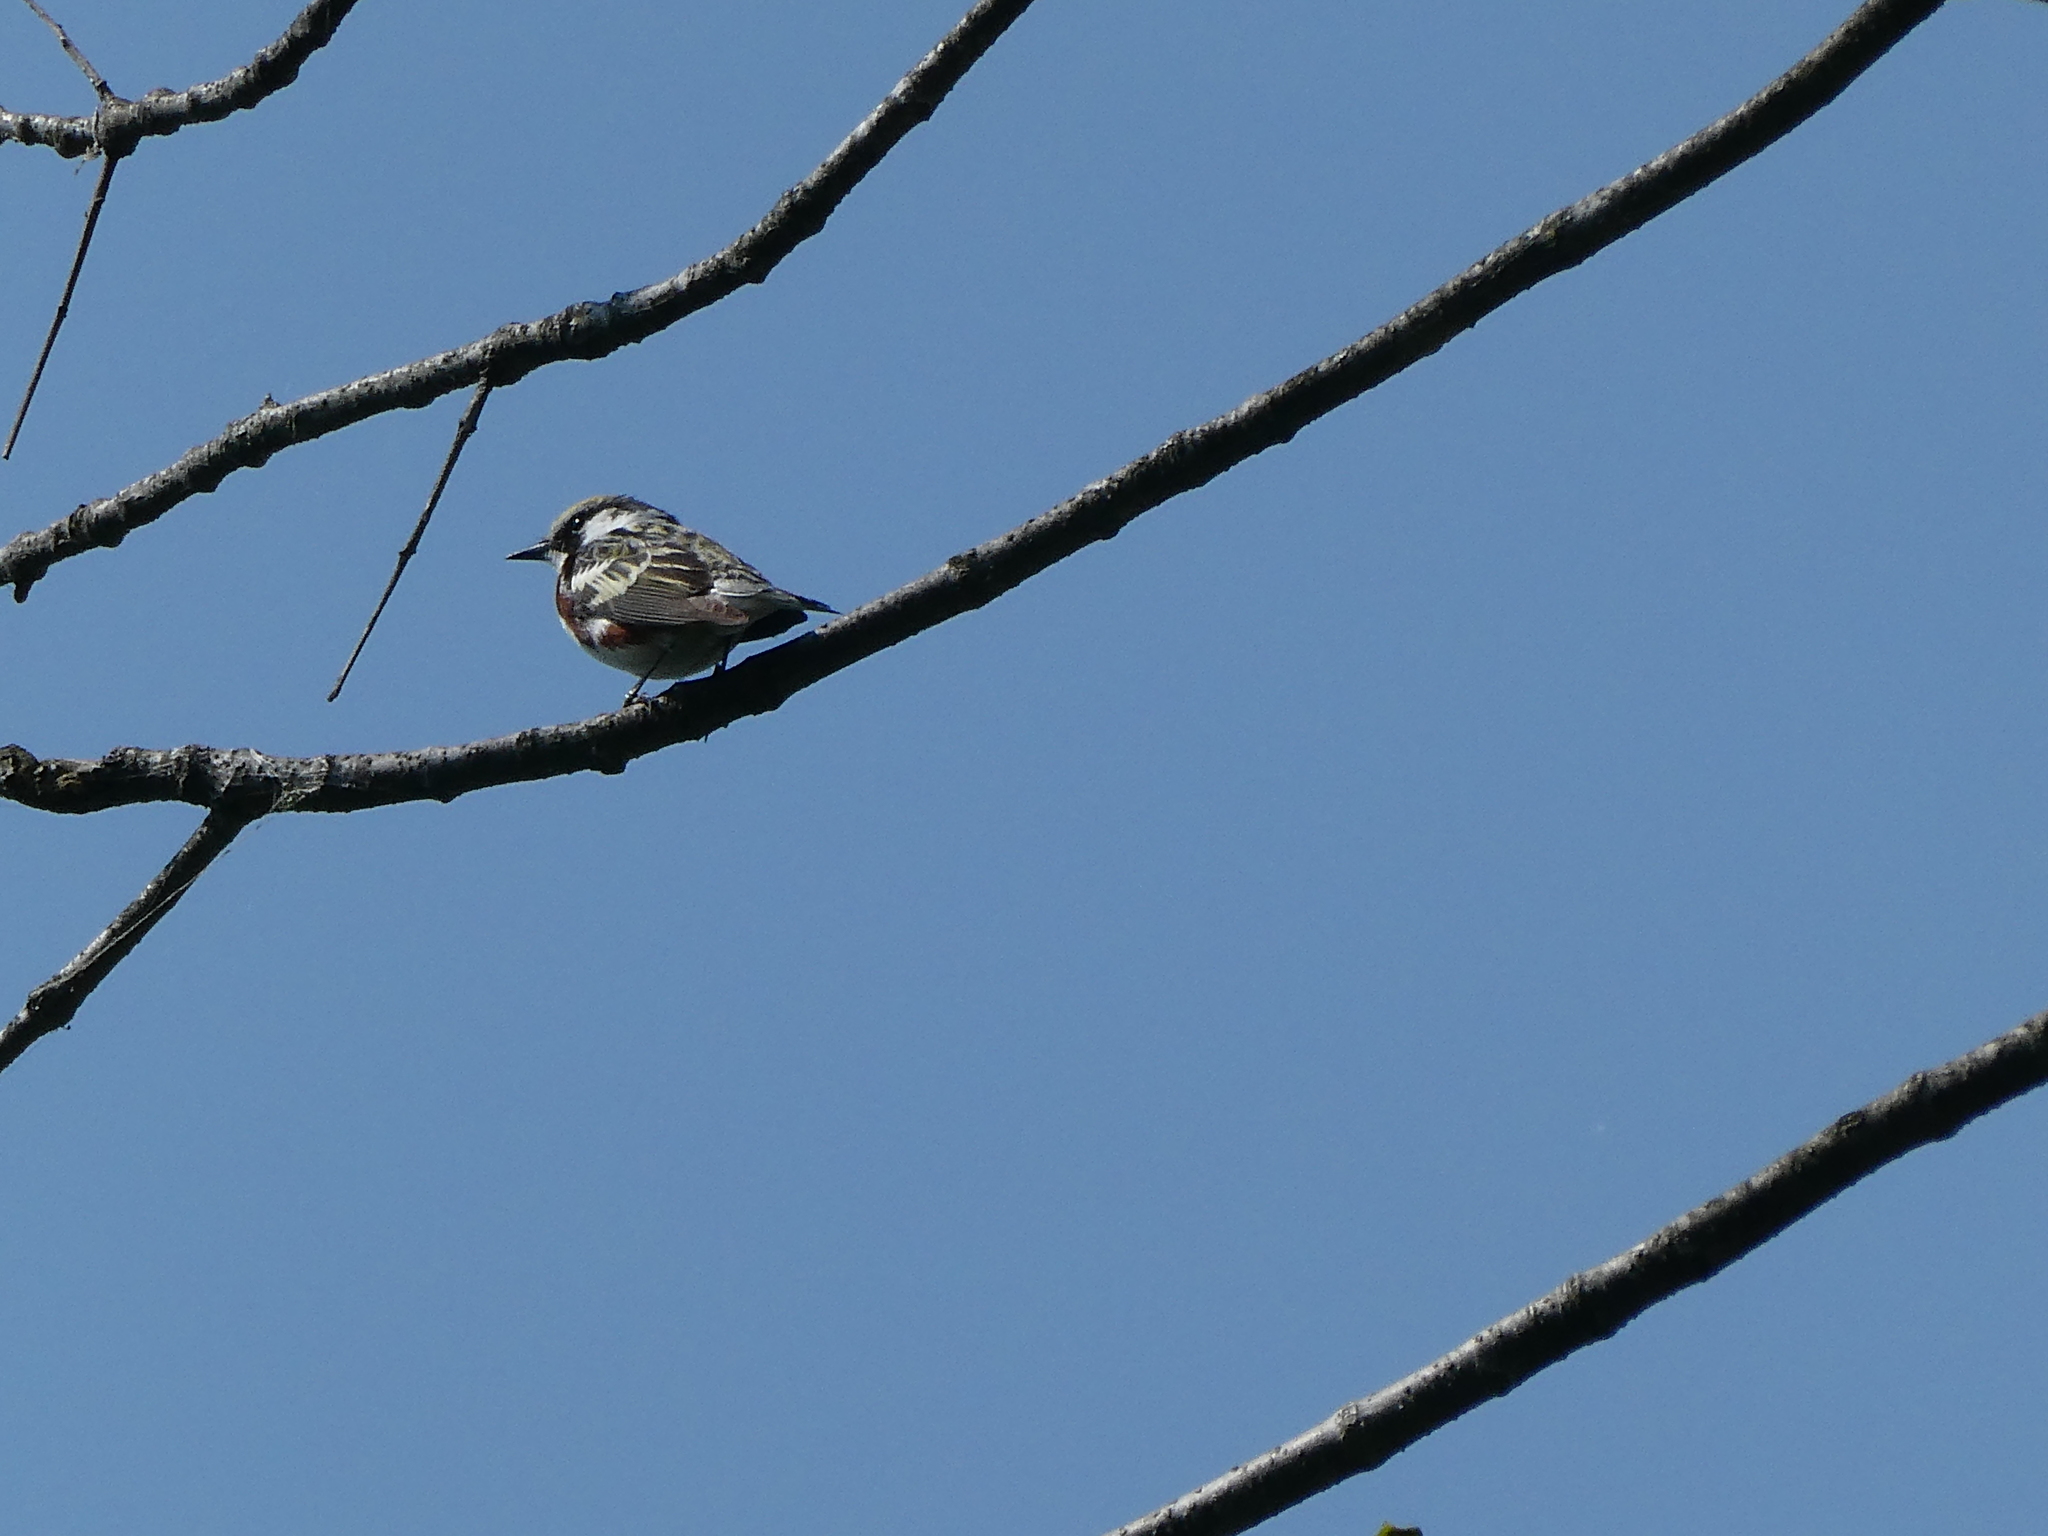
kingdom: Animalia
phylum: Chordata
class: Aves
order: Passeriformes
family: Parulidae
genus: Setophaga
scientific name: Setophaga pensylvanica
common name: Chestnut-sided warbler
